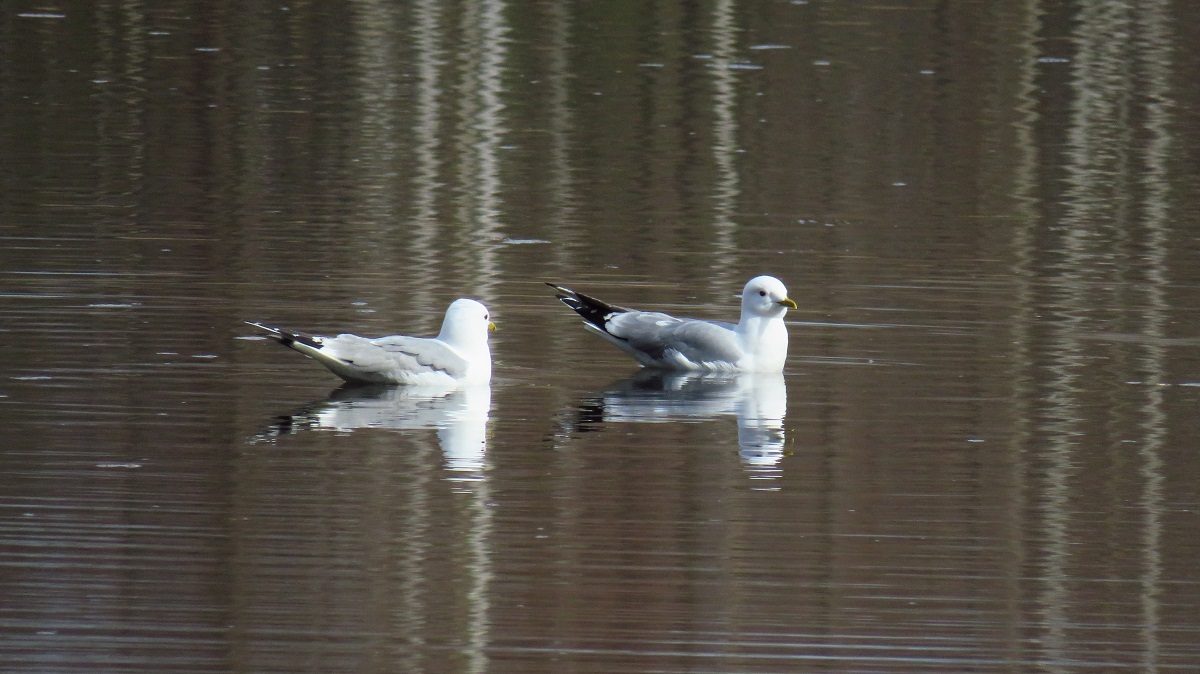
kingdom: Animalia
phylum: Chordata
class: Aves
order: Charadriiformes
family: Laridae
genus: Larus
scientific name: Larus canus
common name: Mew gull
